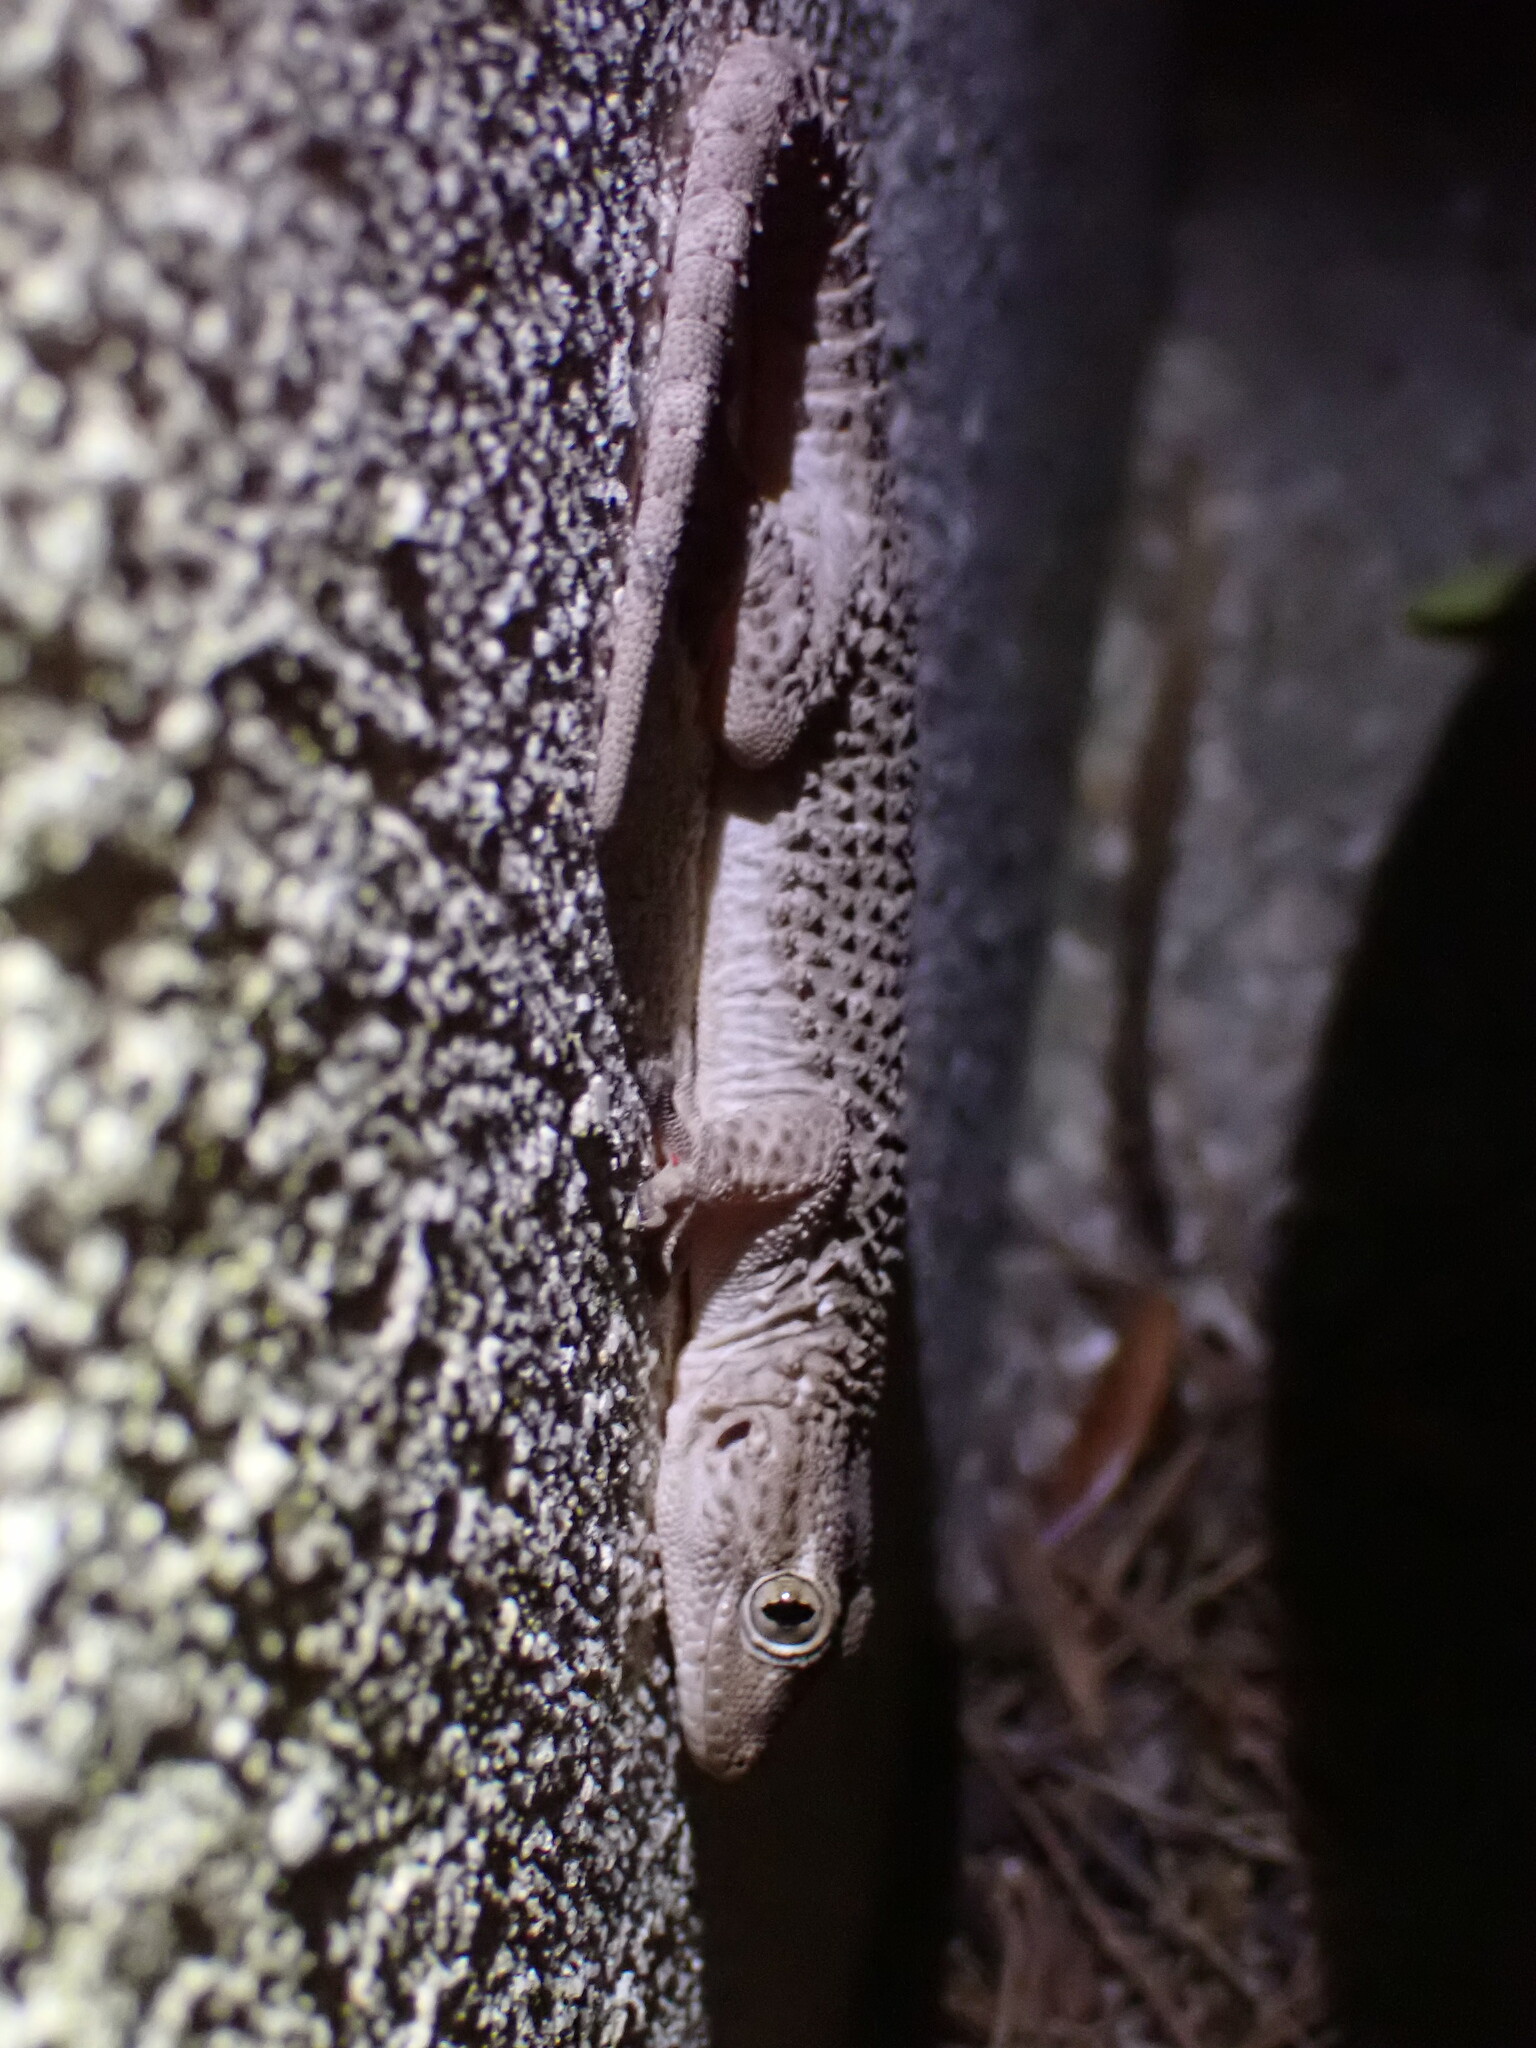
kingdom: Animalia
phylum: Chordata
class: Squamata
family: Phyllodactylidae
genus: Tarentola
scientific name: Tarentola mauritanica
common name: Moorish gecko
